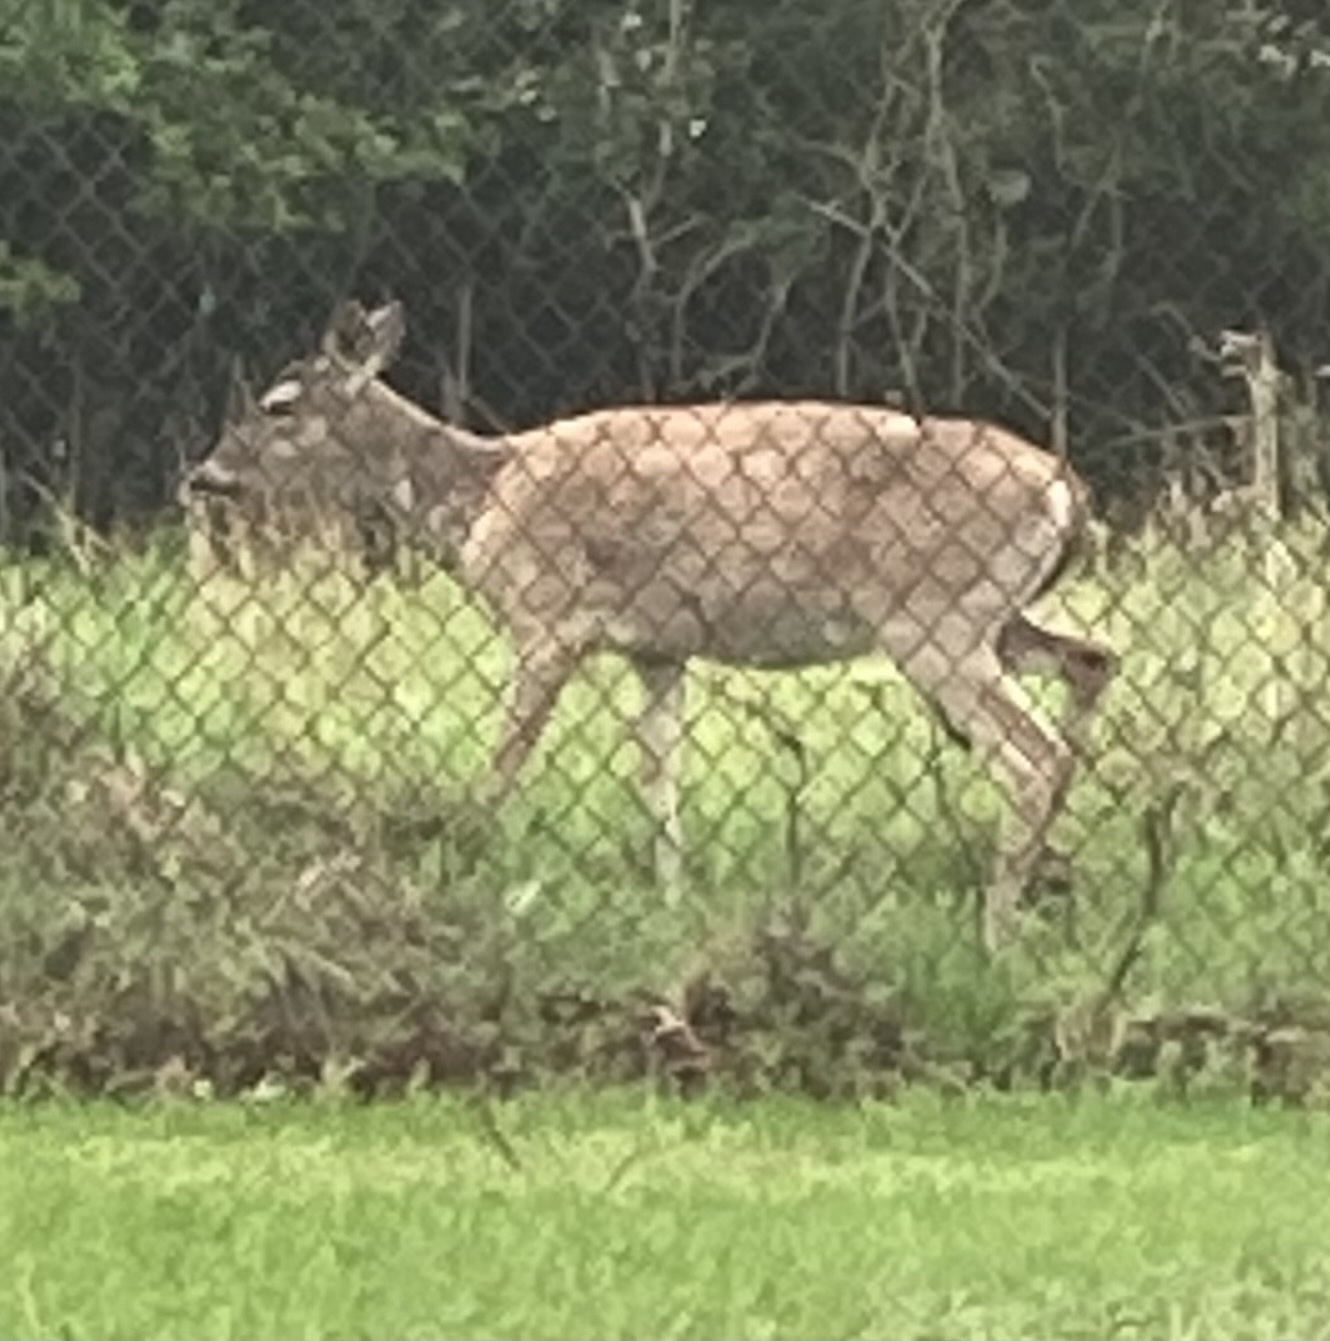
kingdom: Animalia
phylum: Chordata
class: Mammalia
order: Artiodactyla
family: Cervidae
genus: Odocoileus
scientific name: Odocoileus virginianus
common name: White-tailed deer
